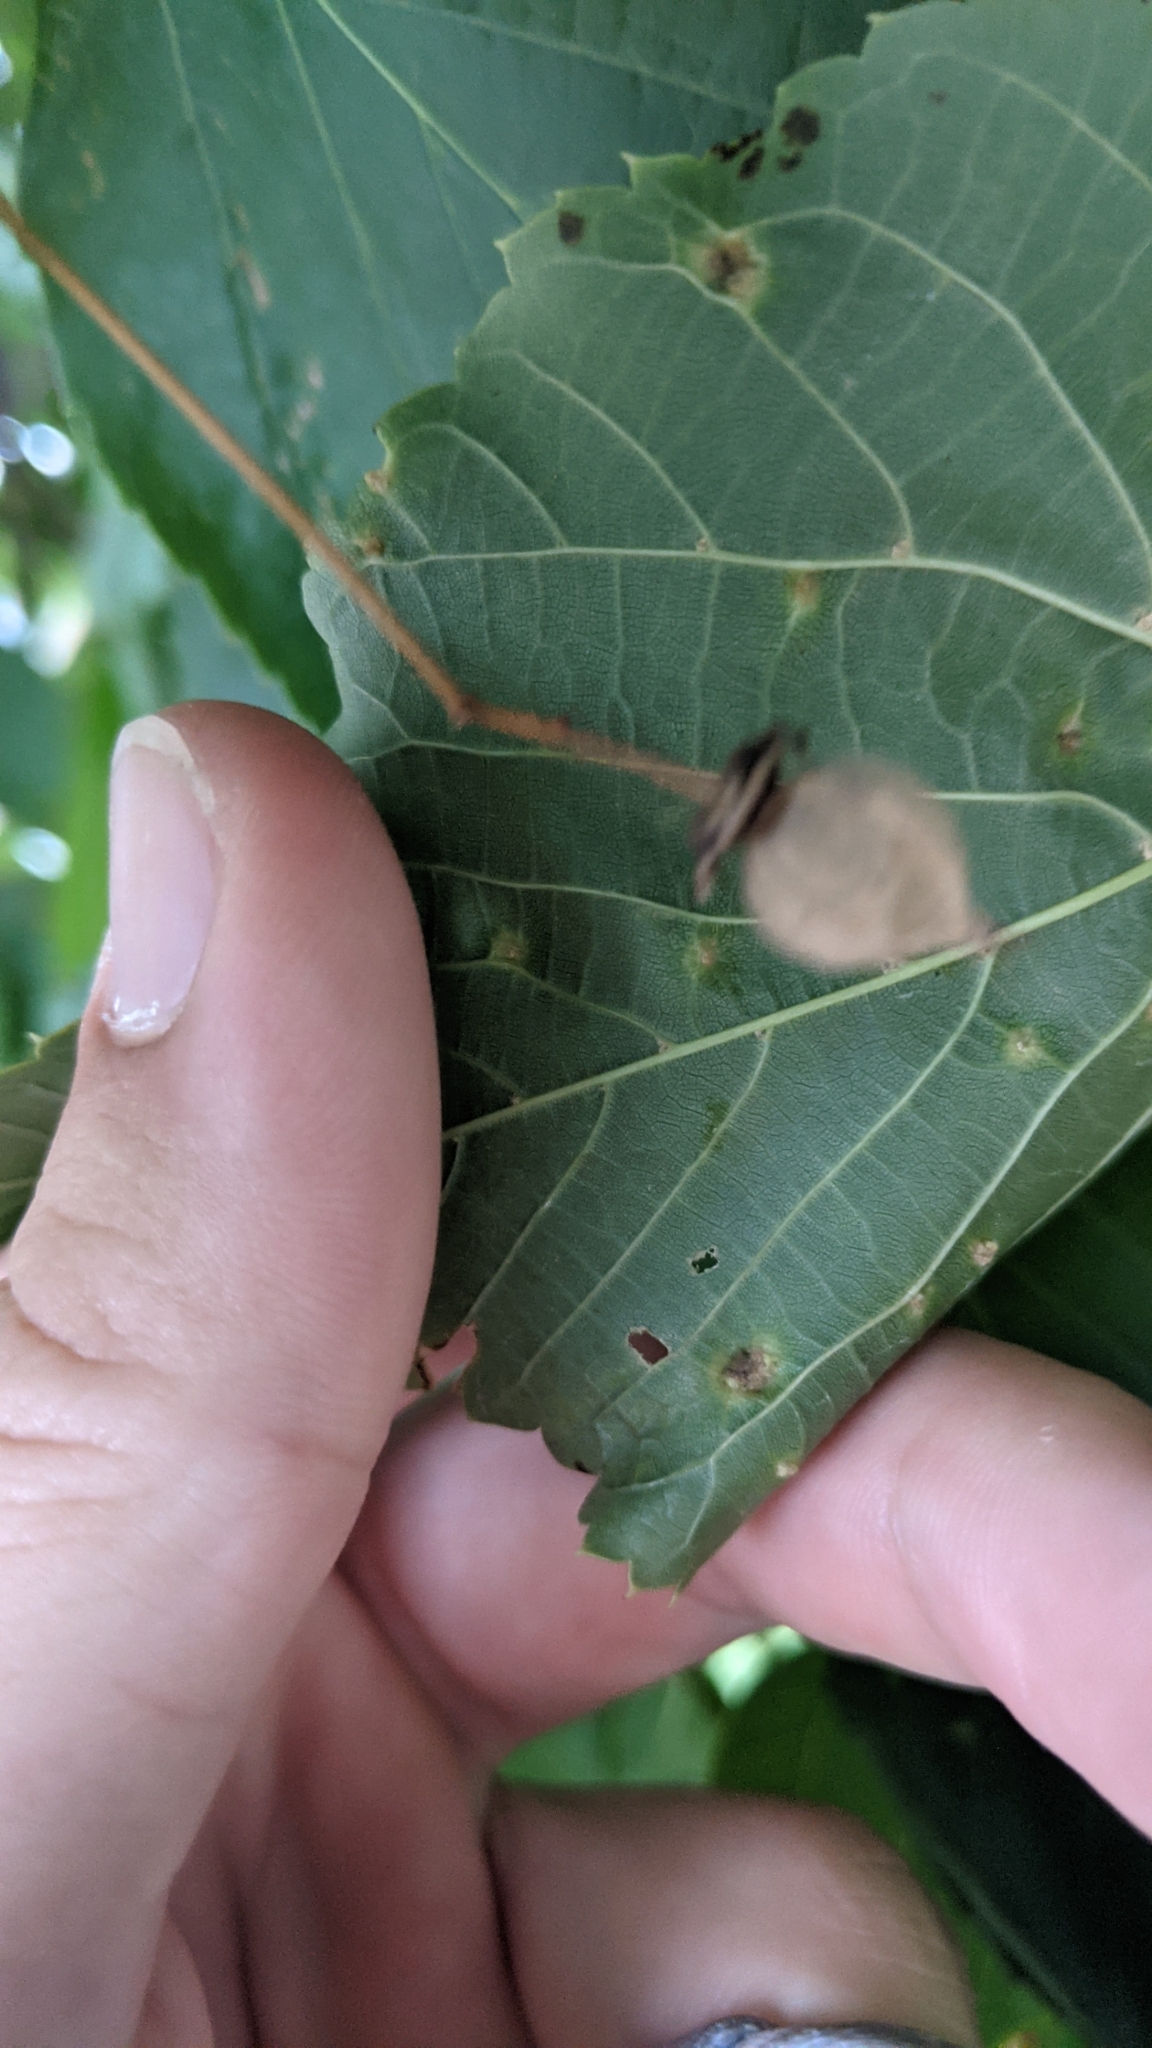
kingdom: Animalia
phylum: Arthropoda
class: Arachnida
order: Trombidiformes
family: Eriophyidae
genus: Eriophyes
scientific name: Eriophyes tiliae
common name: Red nail gall mite
